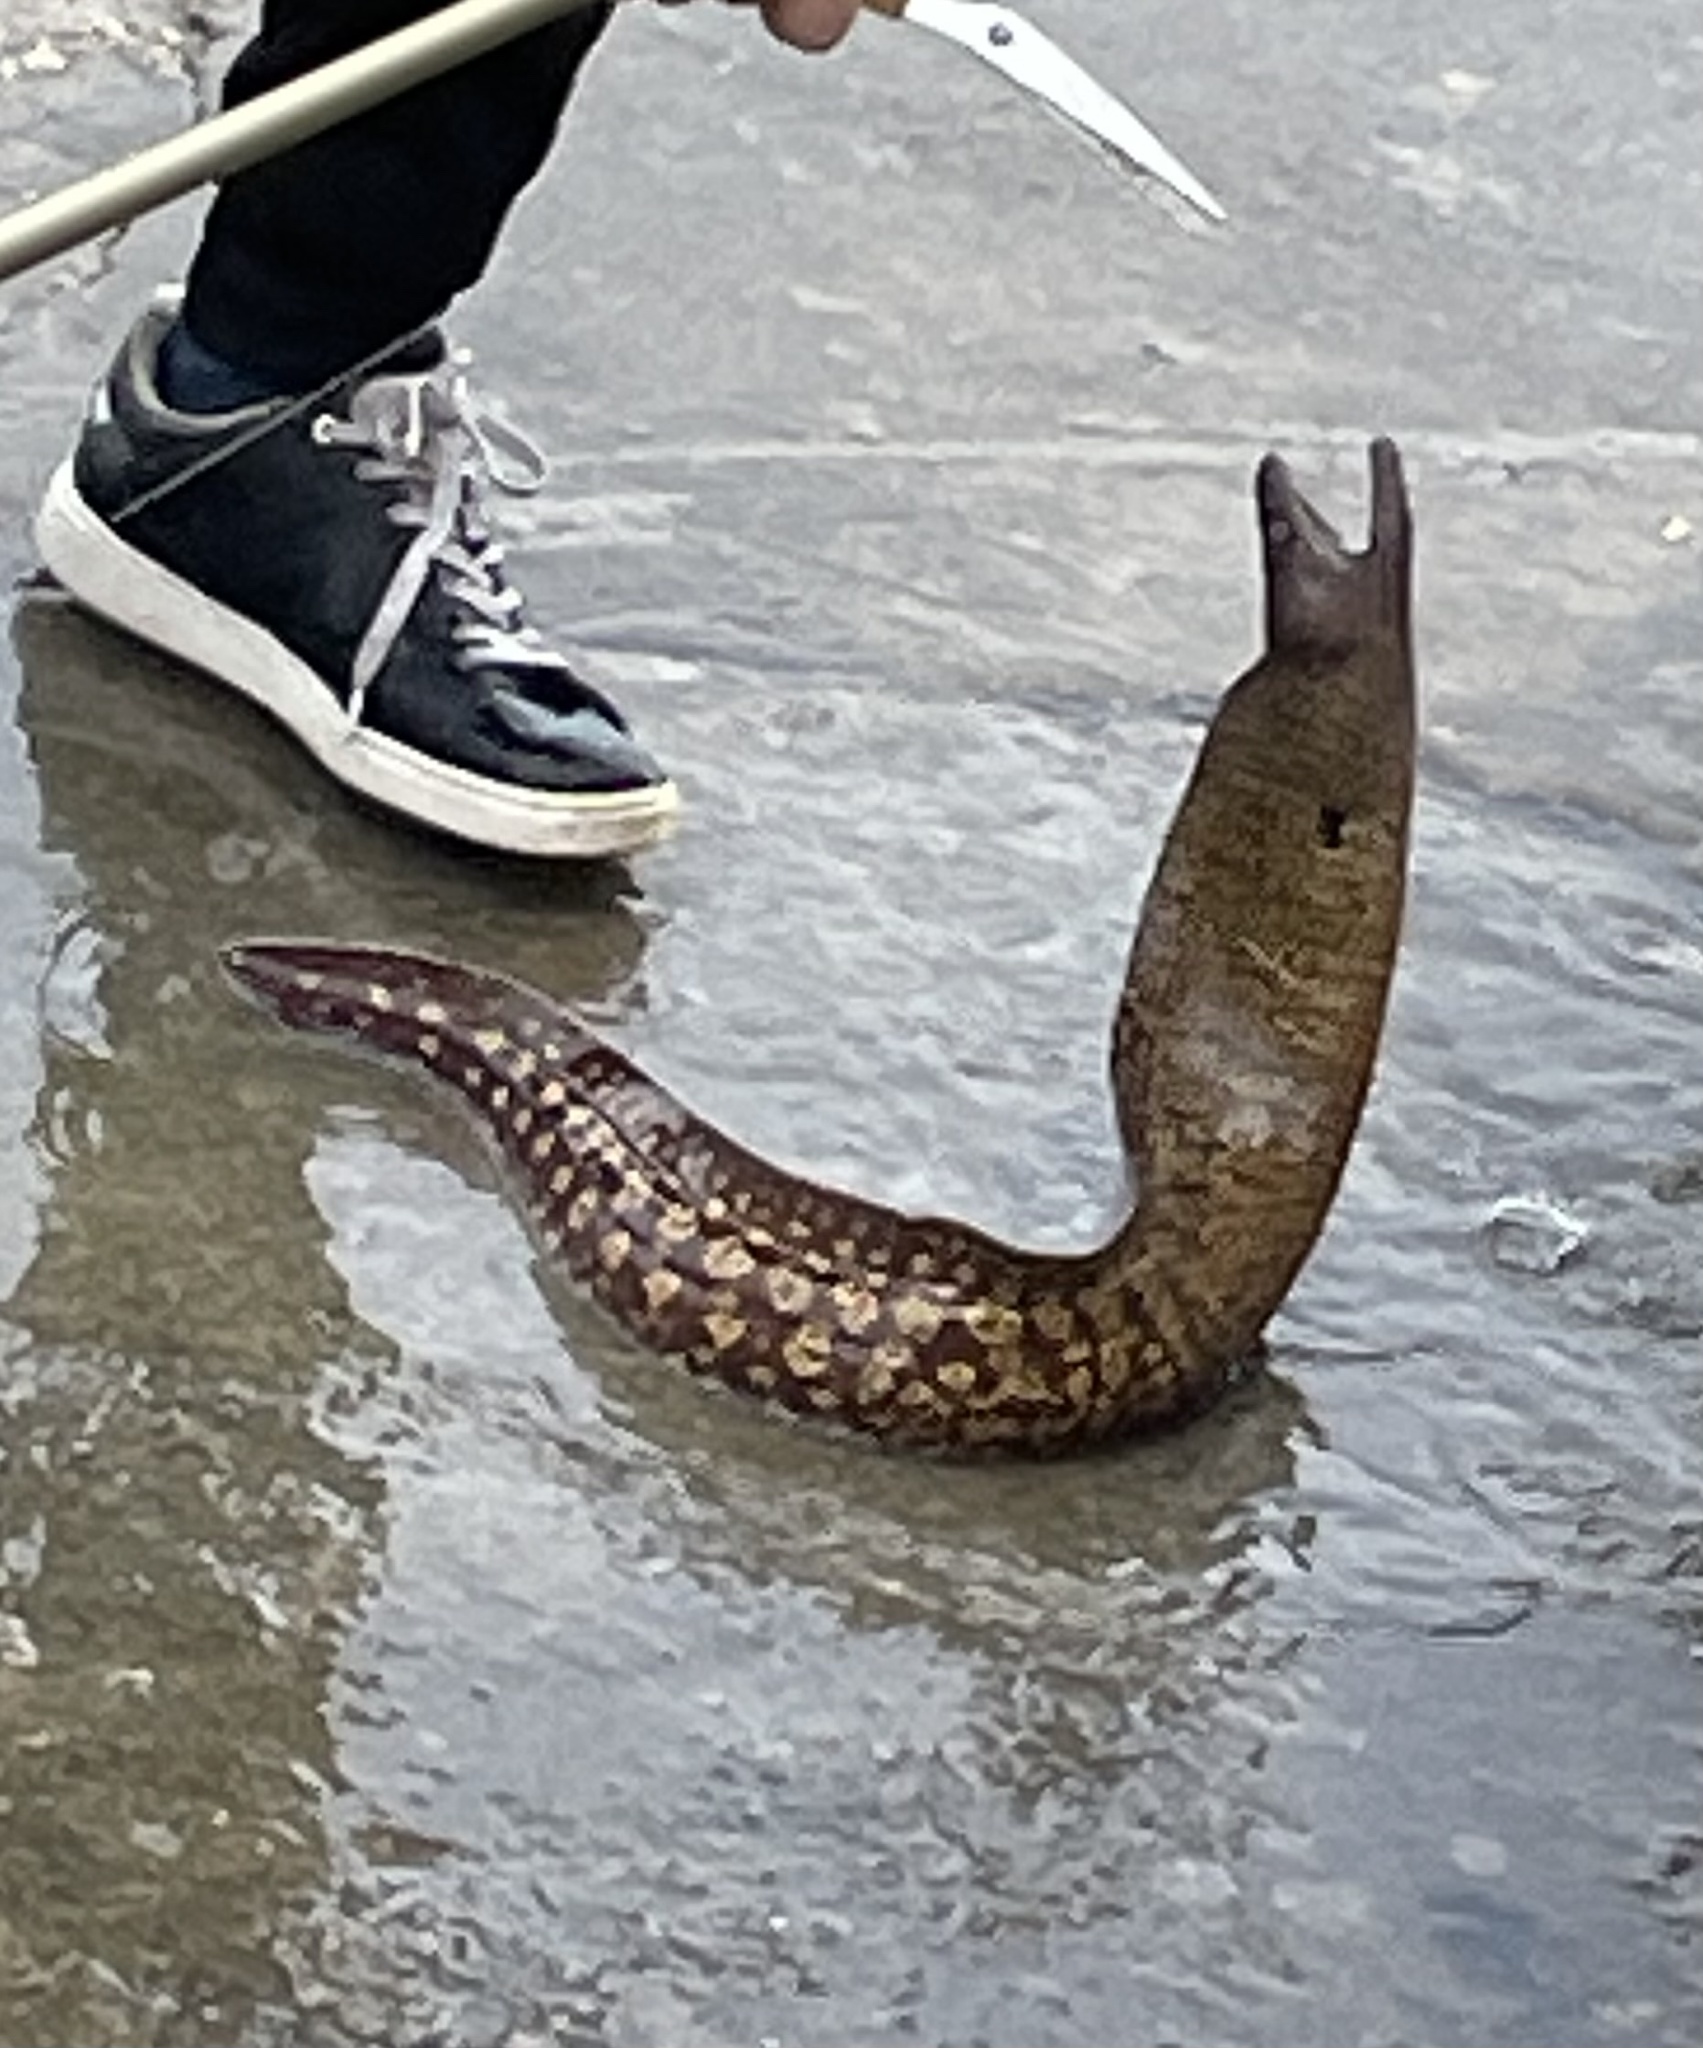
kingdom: Animalia
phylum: Chordata
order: Anguilliformes
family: Muraenidae
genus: Muraena
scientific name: Muraena helena
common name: Mediterranean moray
